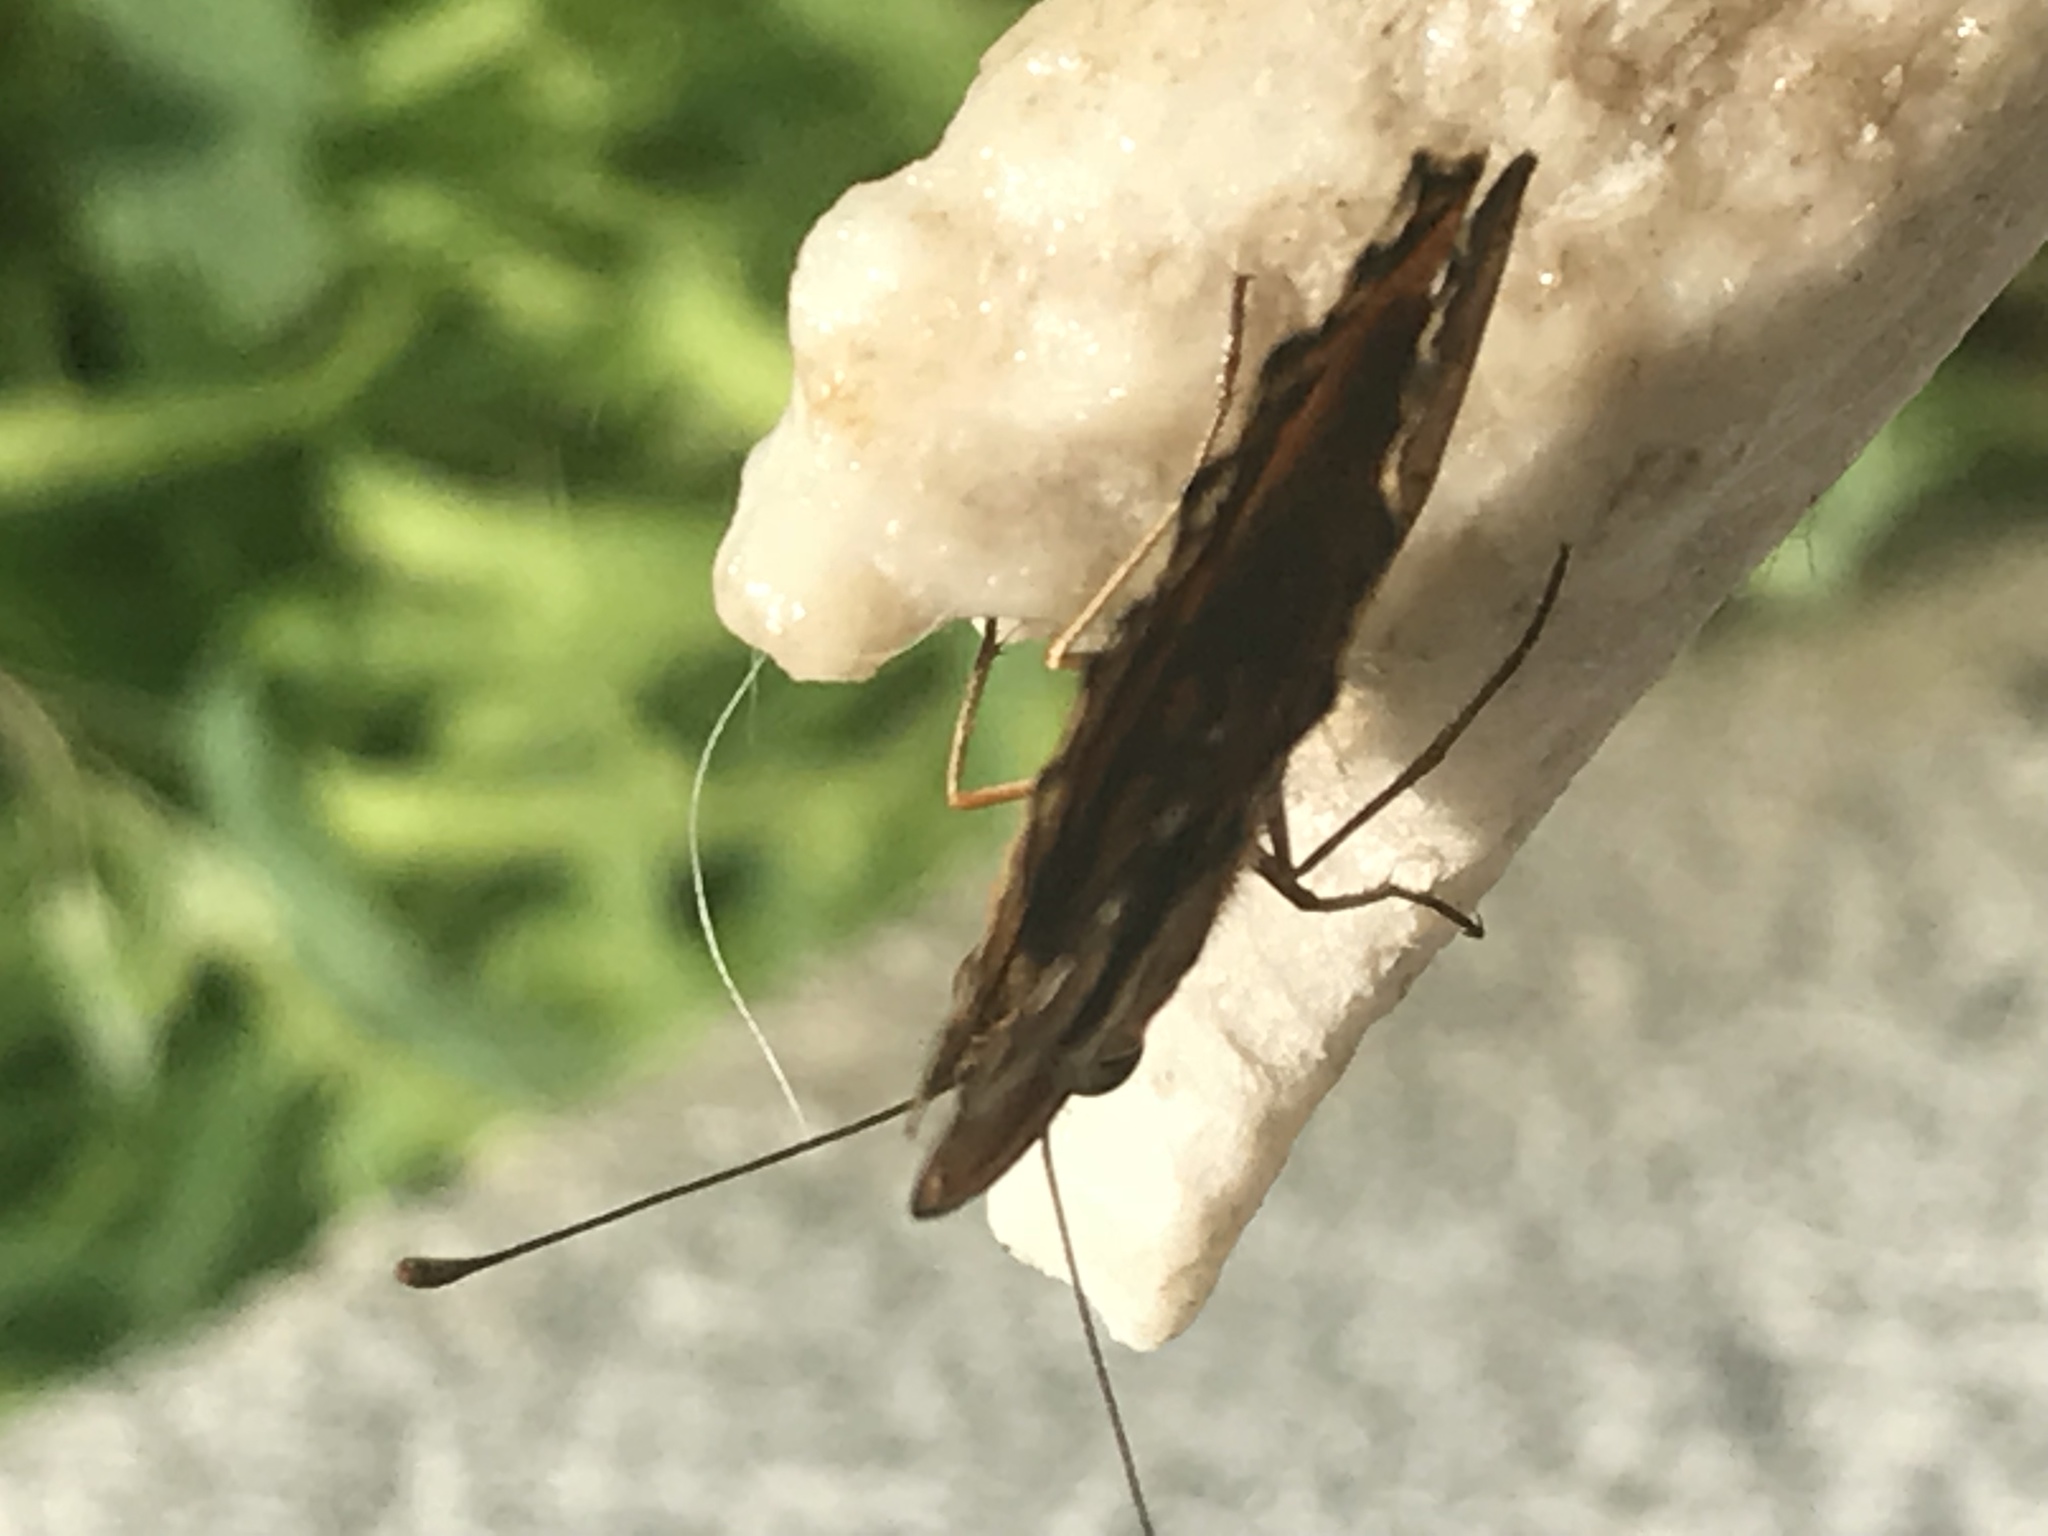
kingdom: Animalia
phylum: Arthropoda
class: Insecta
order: Lepidoptera
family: Nymphalidae
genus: Euptoieta
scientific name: Euptoieta claudia
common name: Variegated fritillary
